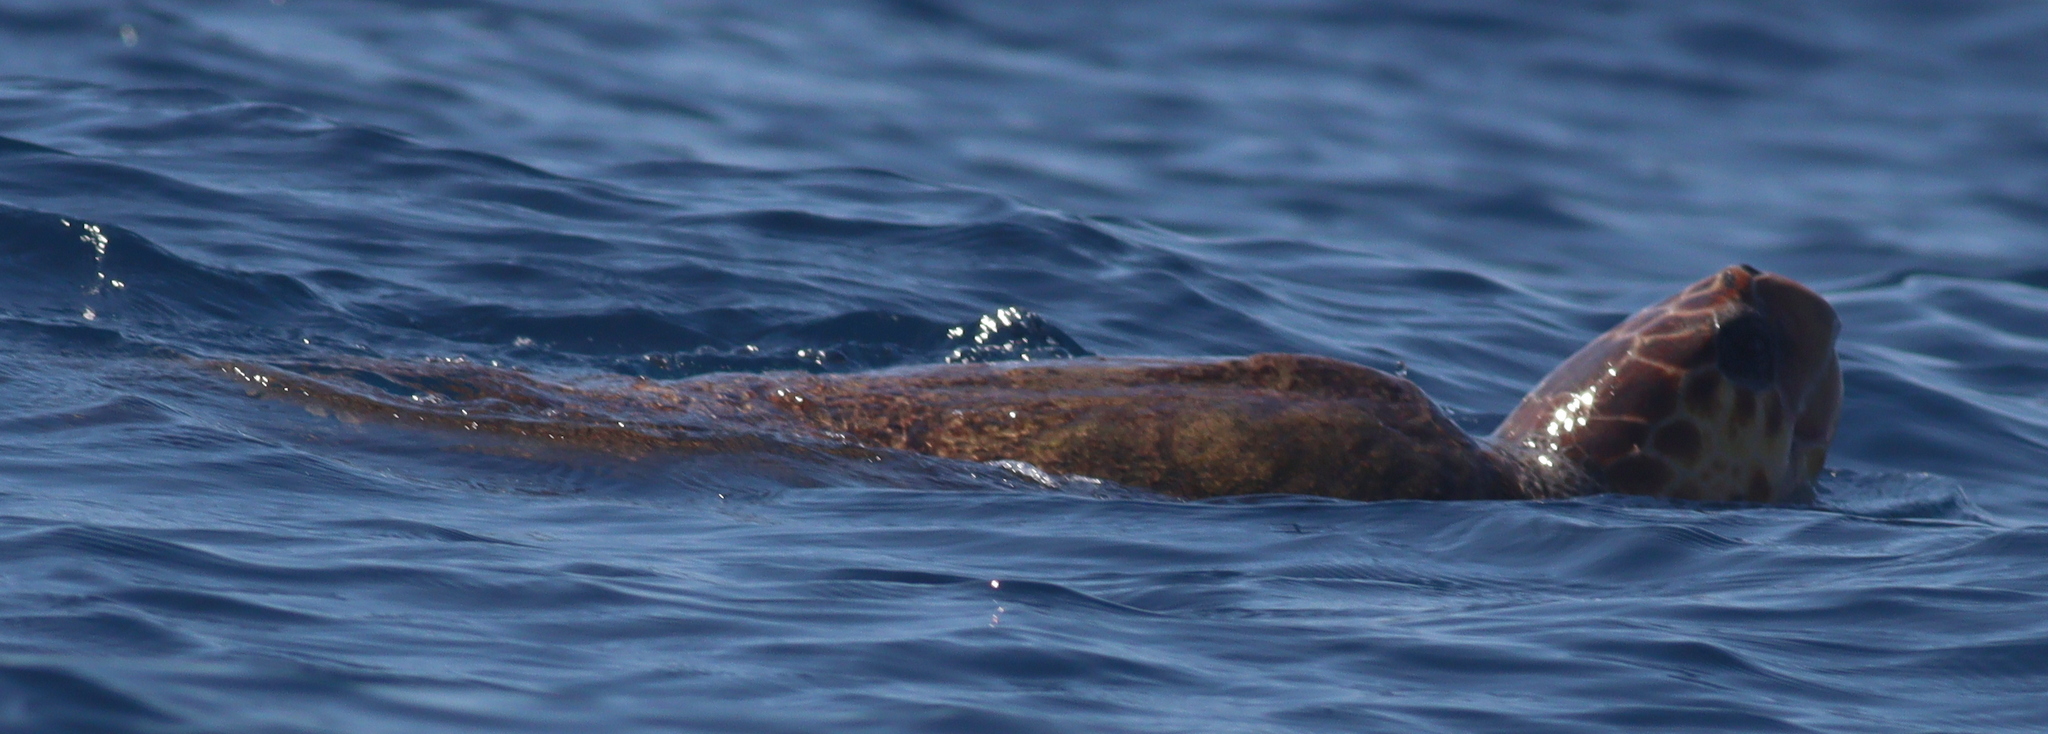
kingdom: Animalia
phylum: Chordata
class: Testudines
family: Cheloniidae
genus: Caretta
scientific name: Caretta caretta
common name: Loggerhead sea turtle
